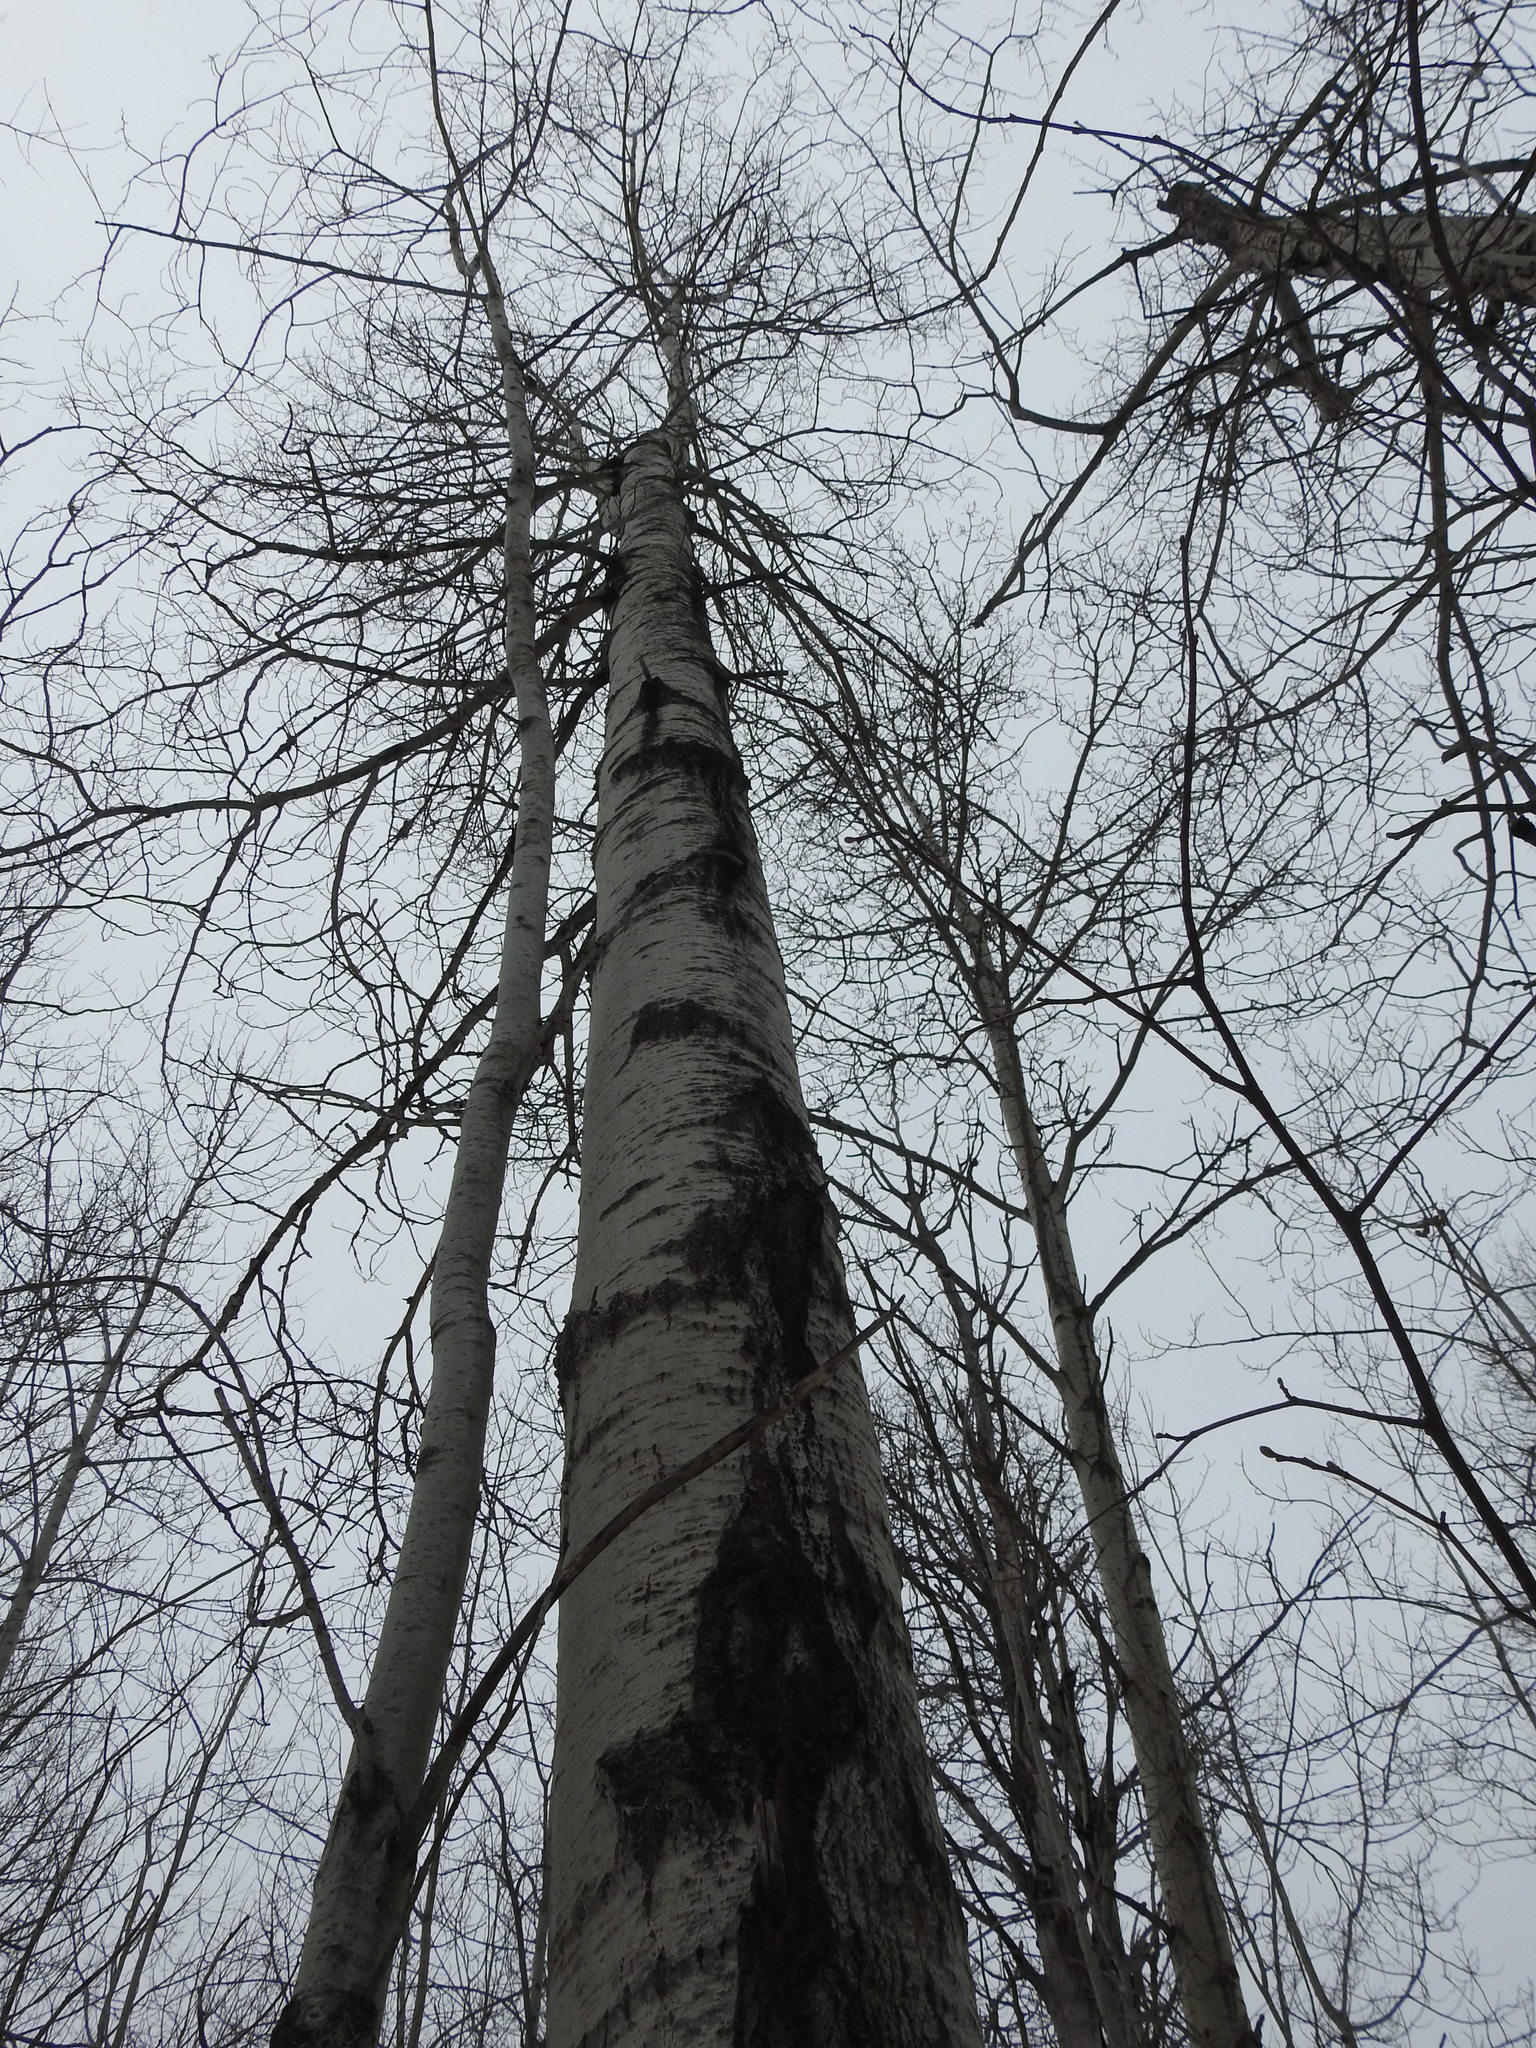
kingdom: Plantae
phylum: Tracheophyta
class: Magnoliopsida
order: Malpighiales
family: Salicaceae
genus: Populus
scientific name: Populus tremuloides
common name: Quaking aspen
